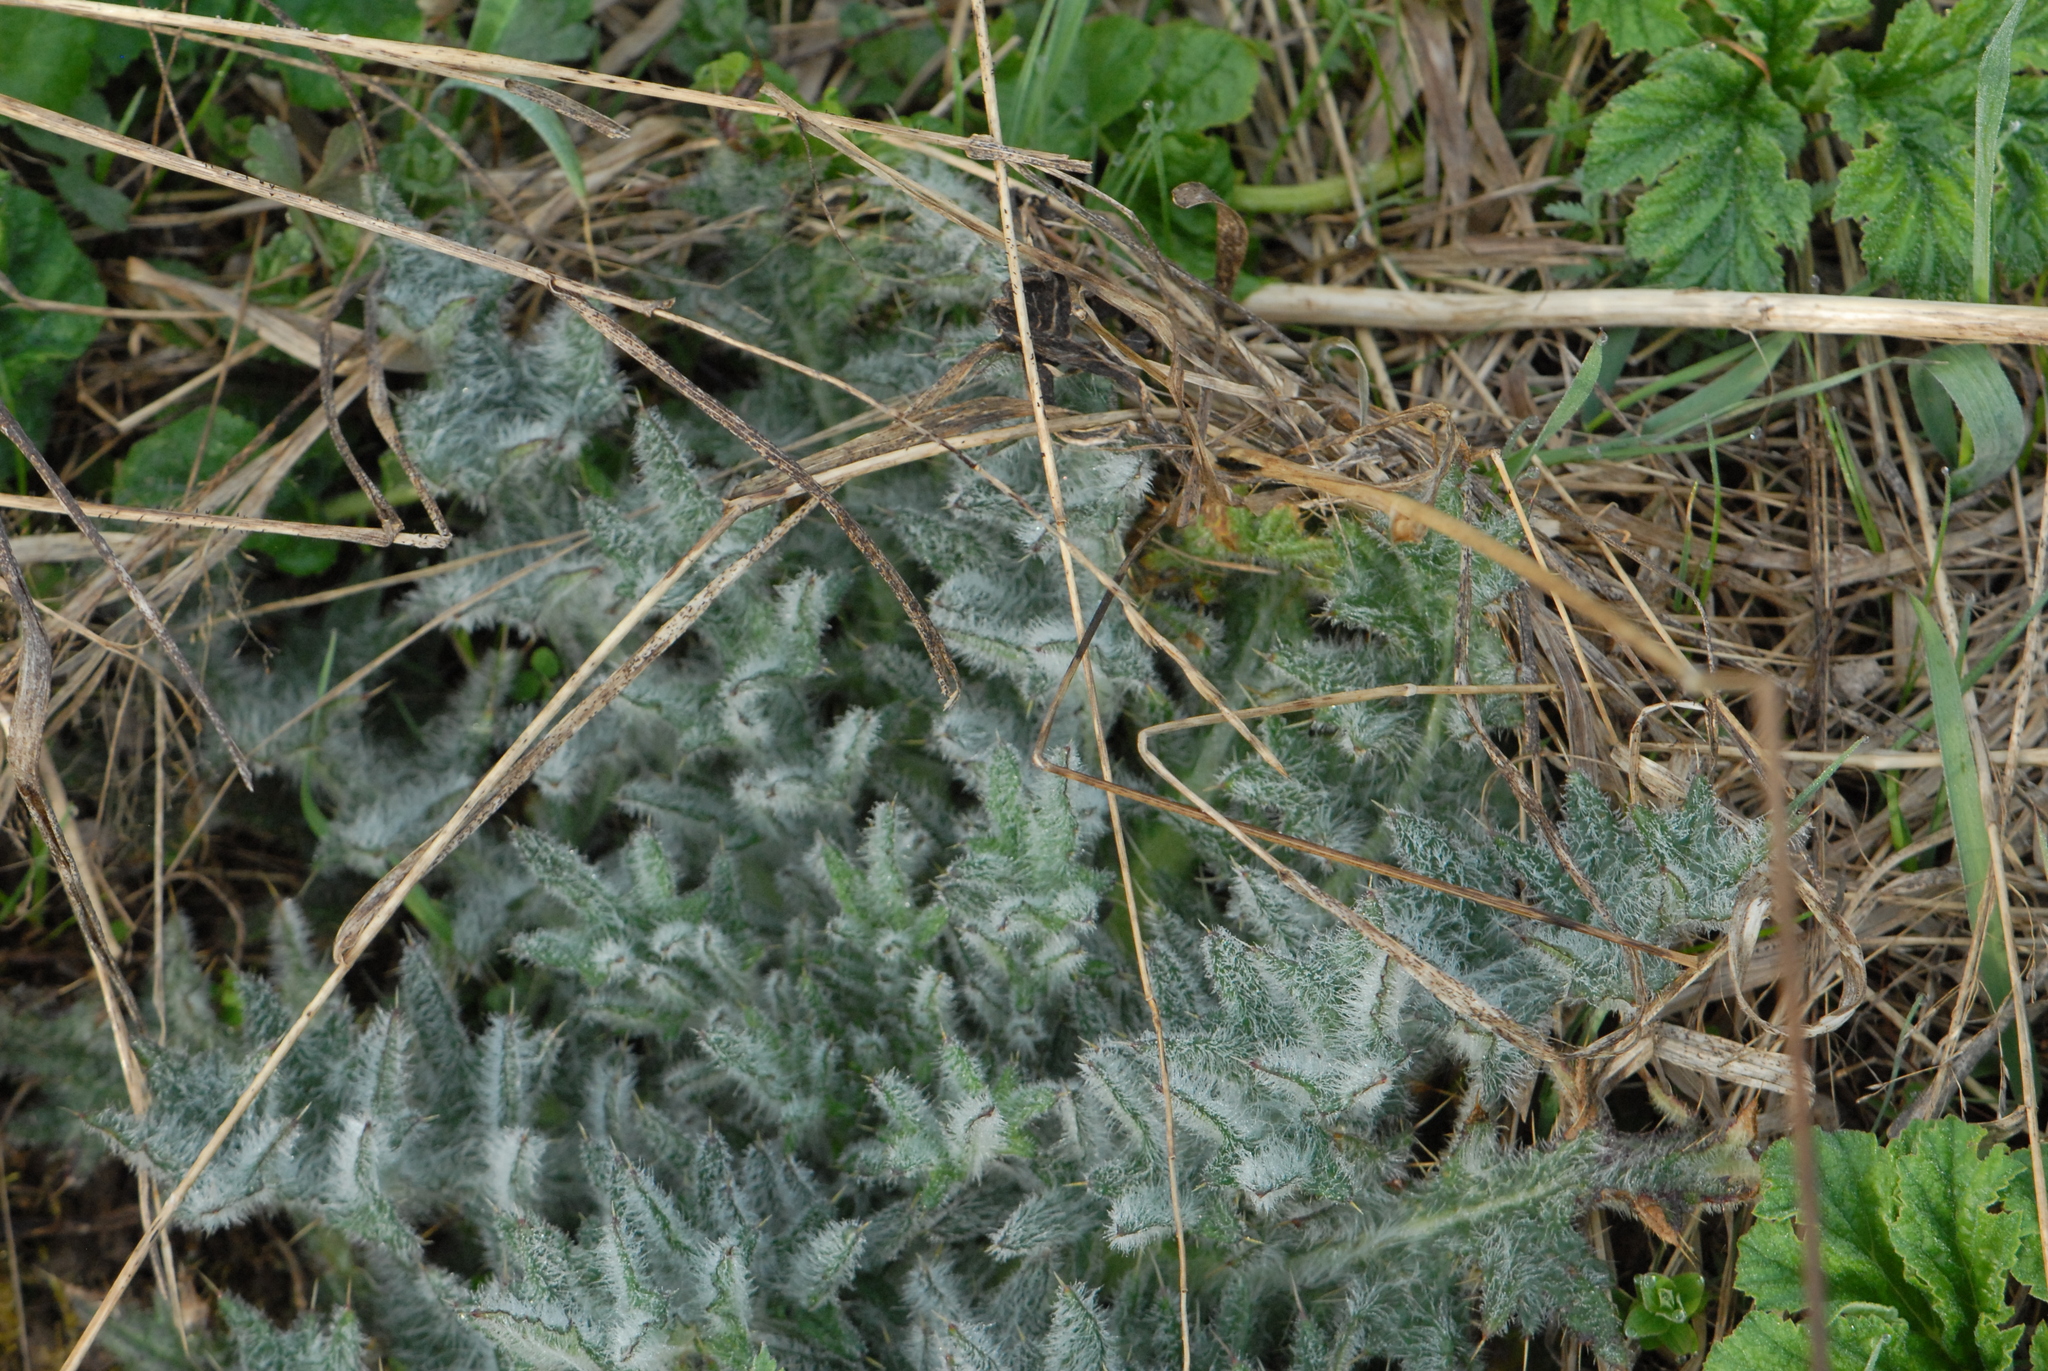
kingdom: Plantae
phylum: Tracheophyta
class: Magnoliopsida
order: Asterales
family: Asteraceae
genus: Cirsium
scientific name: Cirsium vulgare
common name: Bull thistle
